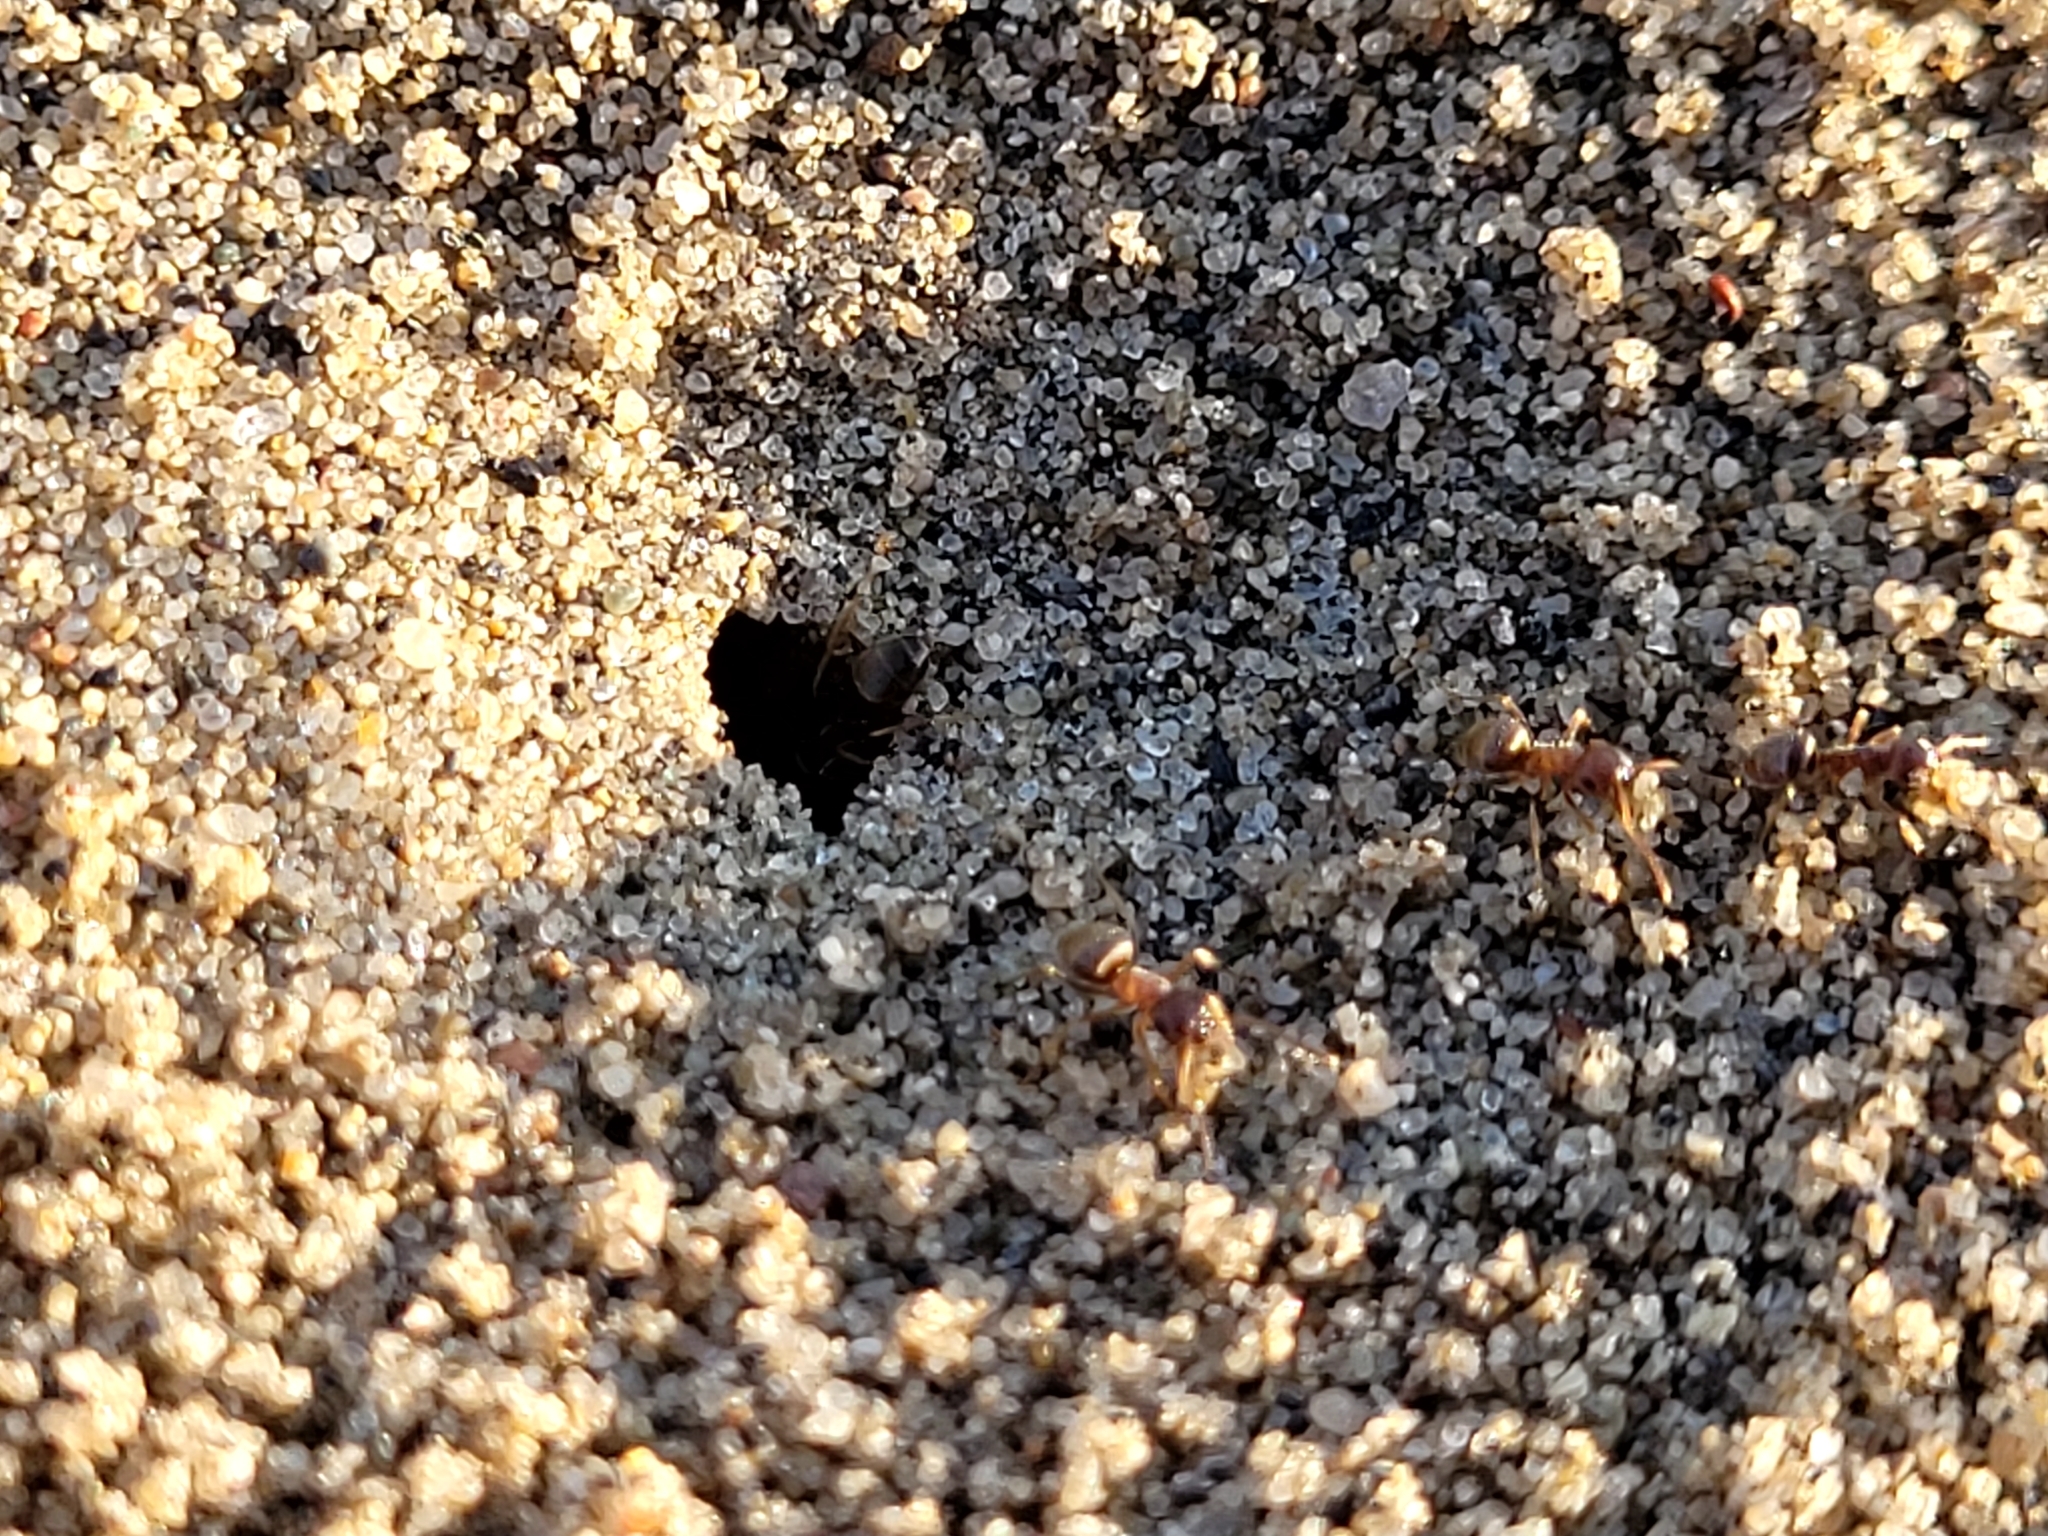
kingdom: Animalia
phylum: Arthropoda
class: Insecta
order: Hymenoptera
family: Formicidae
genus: Lasius
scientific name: Lasius neoniger
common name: Turfgrass ant
